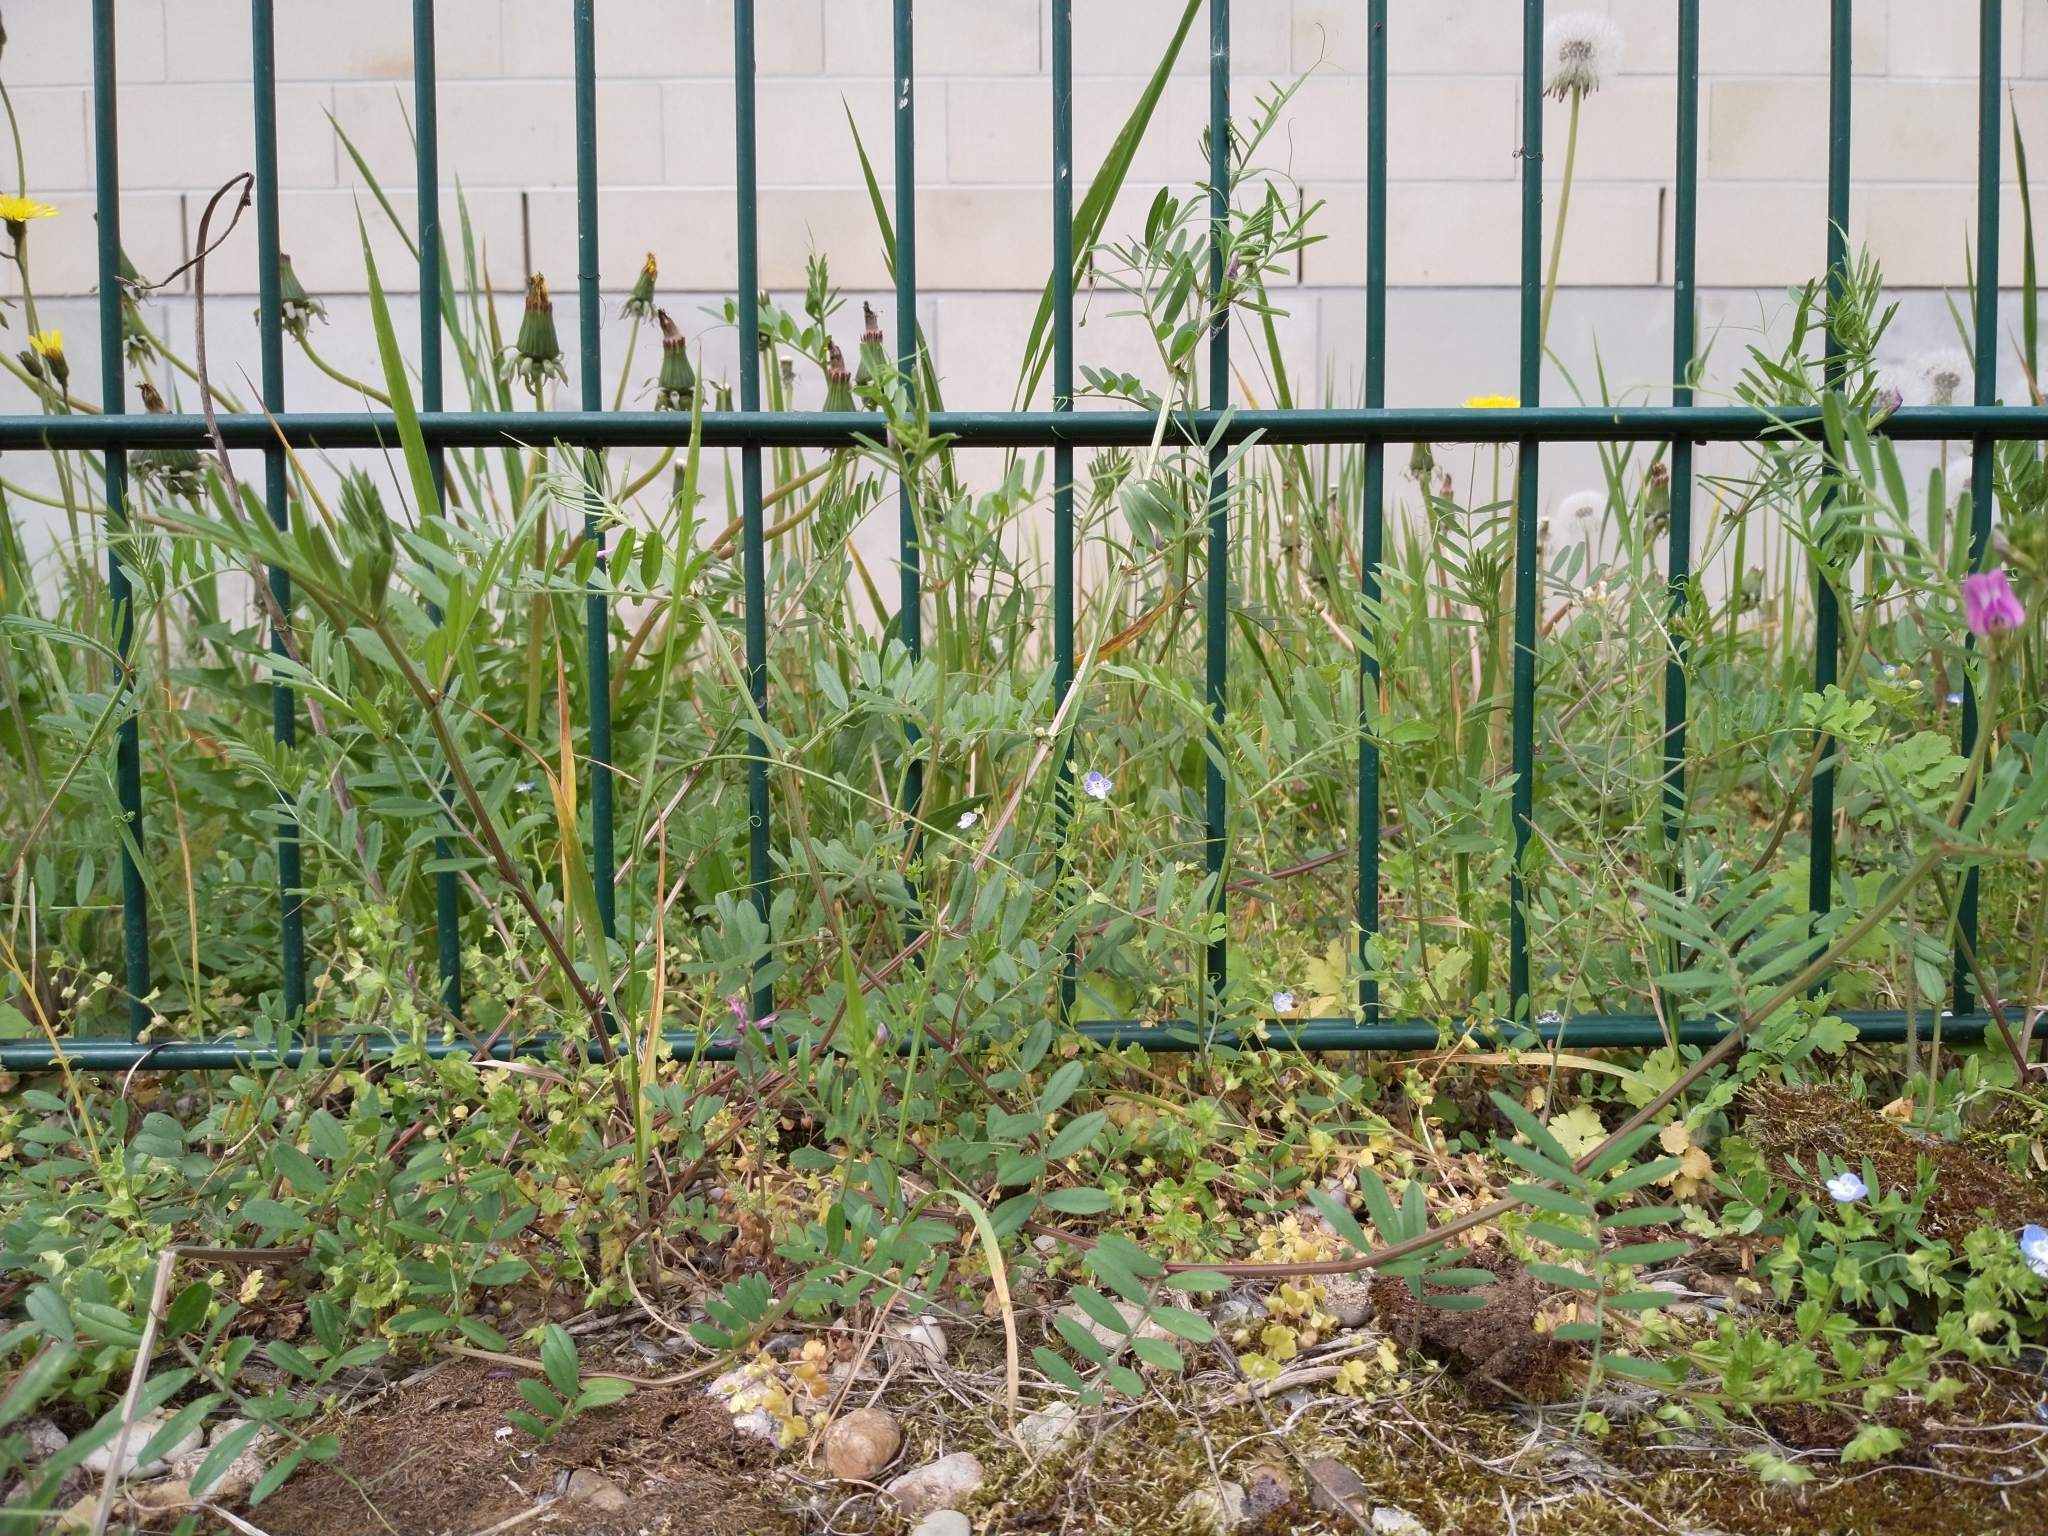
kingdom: Plantae
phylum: Tracheophyta
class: Magnoliopsida
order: Fabales
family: Fabaceae
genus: Vicia
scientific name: Vicia sativa
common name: Garden vetch
